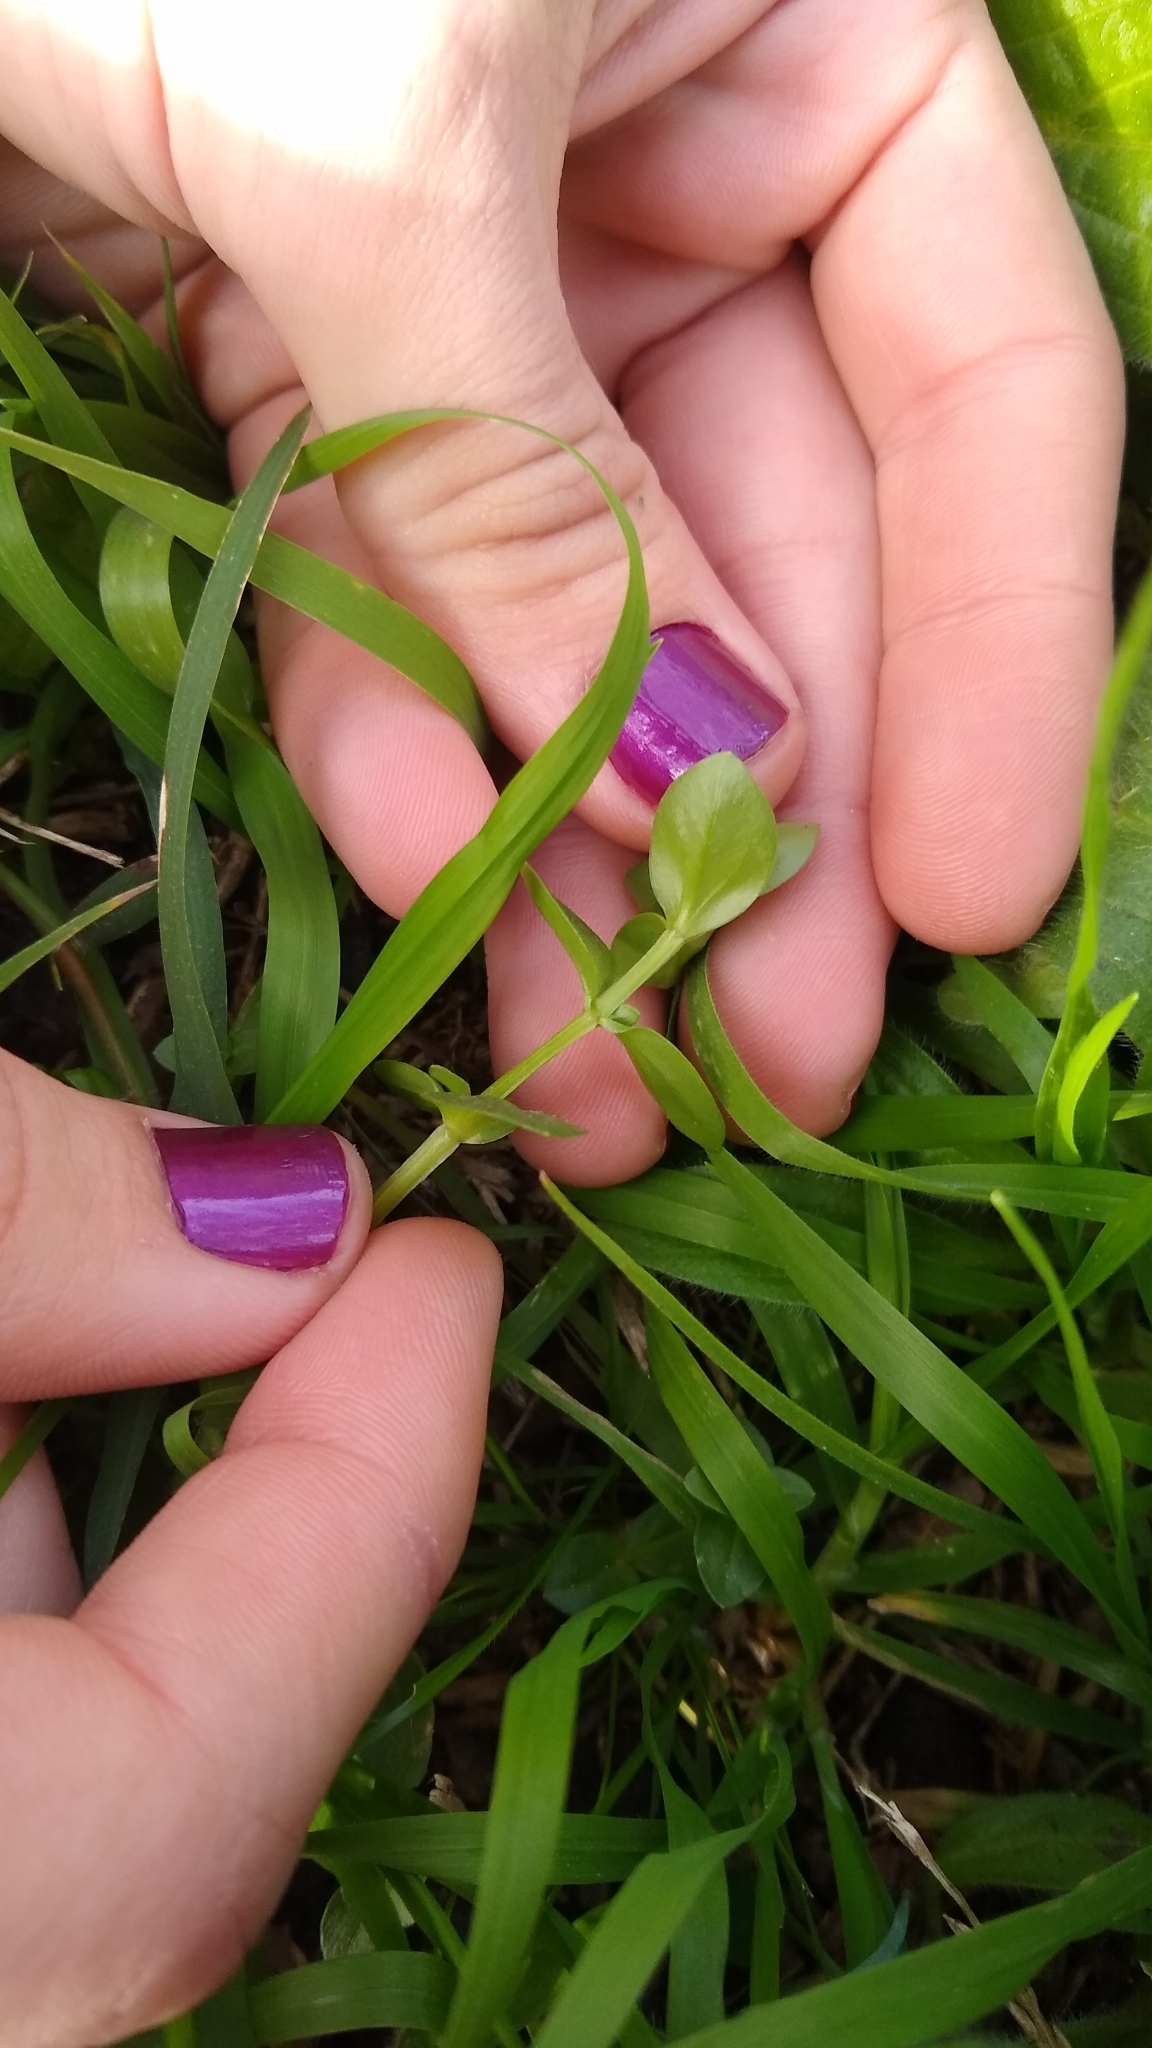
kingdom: Plantae
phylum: Tracheophyta
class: Magnoliopsida
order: Ericales
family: Primulaceae
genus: Lysimachia
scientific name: Lysimachia arvensis
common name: Scarlet pimpernel
